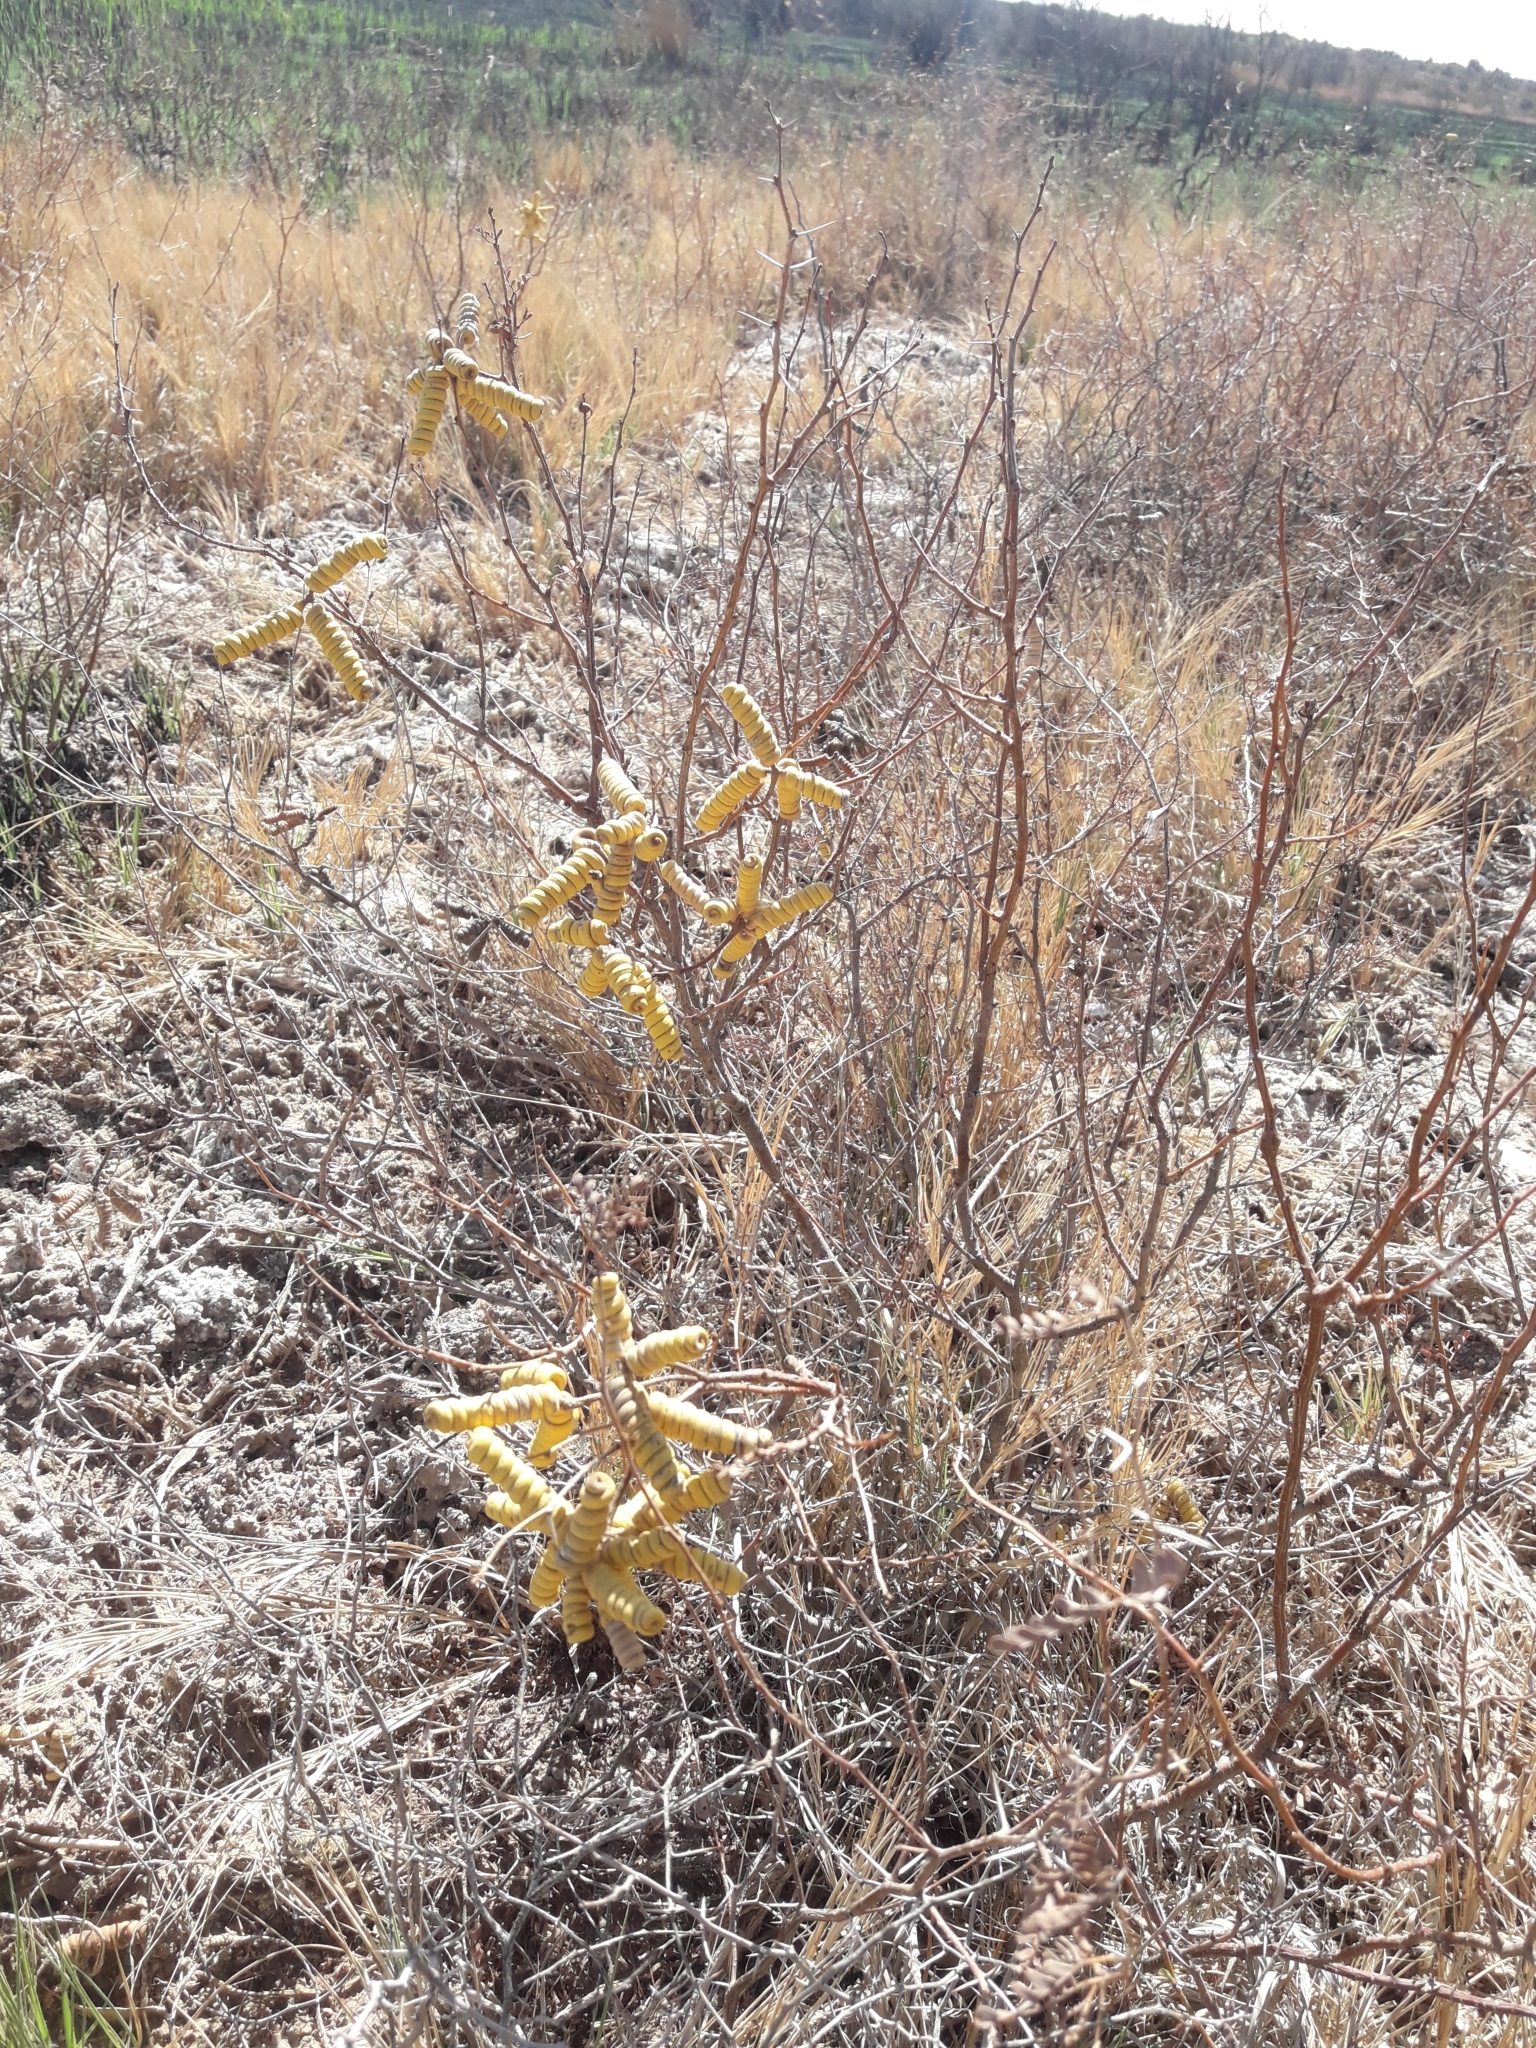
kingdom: Plantae
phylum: Tracheophyta
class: Magnoliopsida
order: Fabales
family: Fabaceae
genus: Prosopis
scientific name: Prosopis strombulifera
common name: Creeping mesquite
